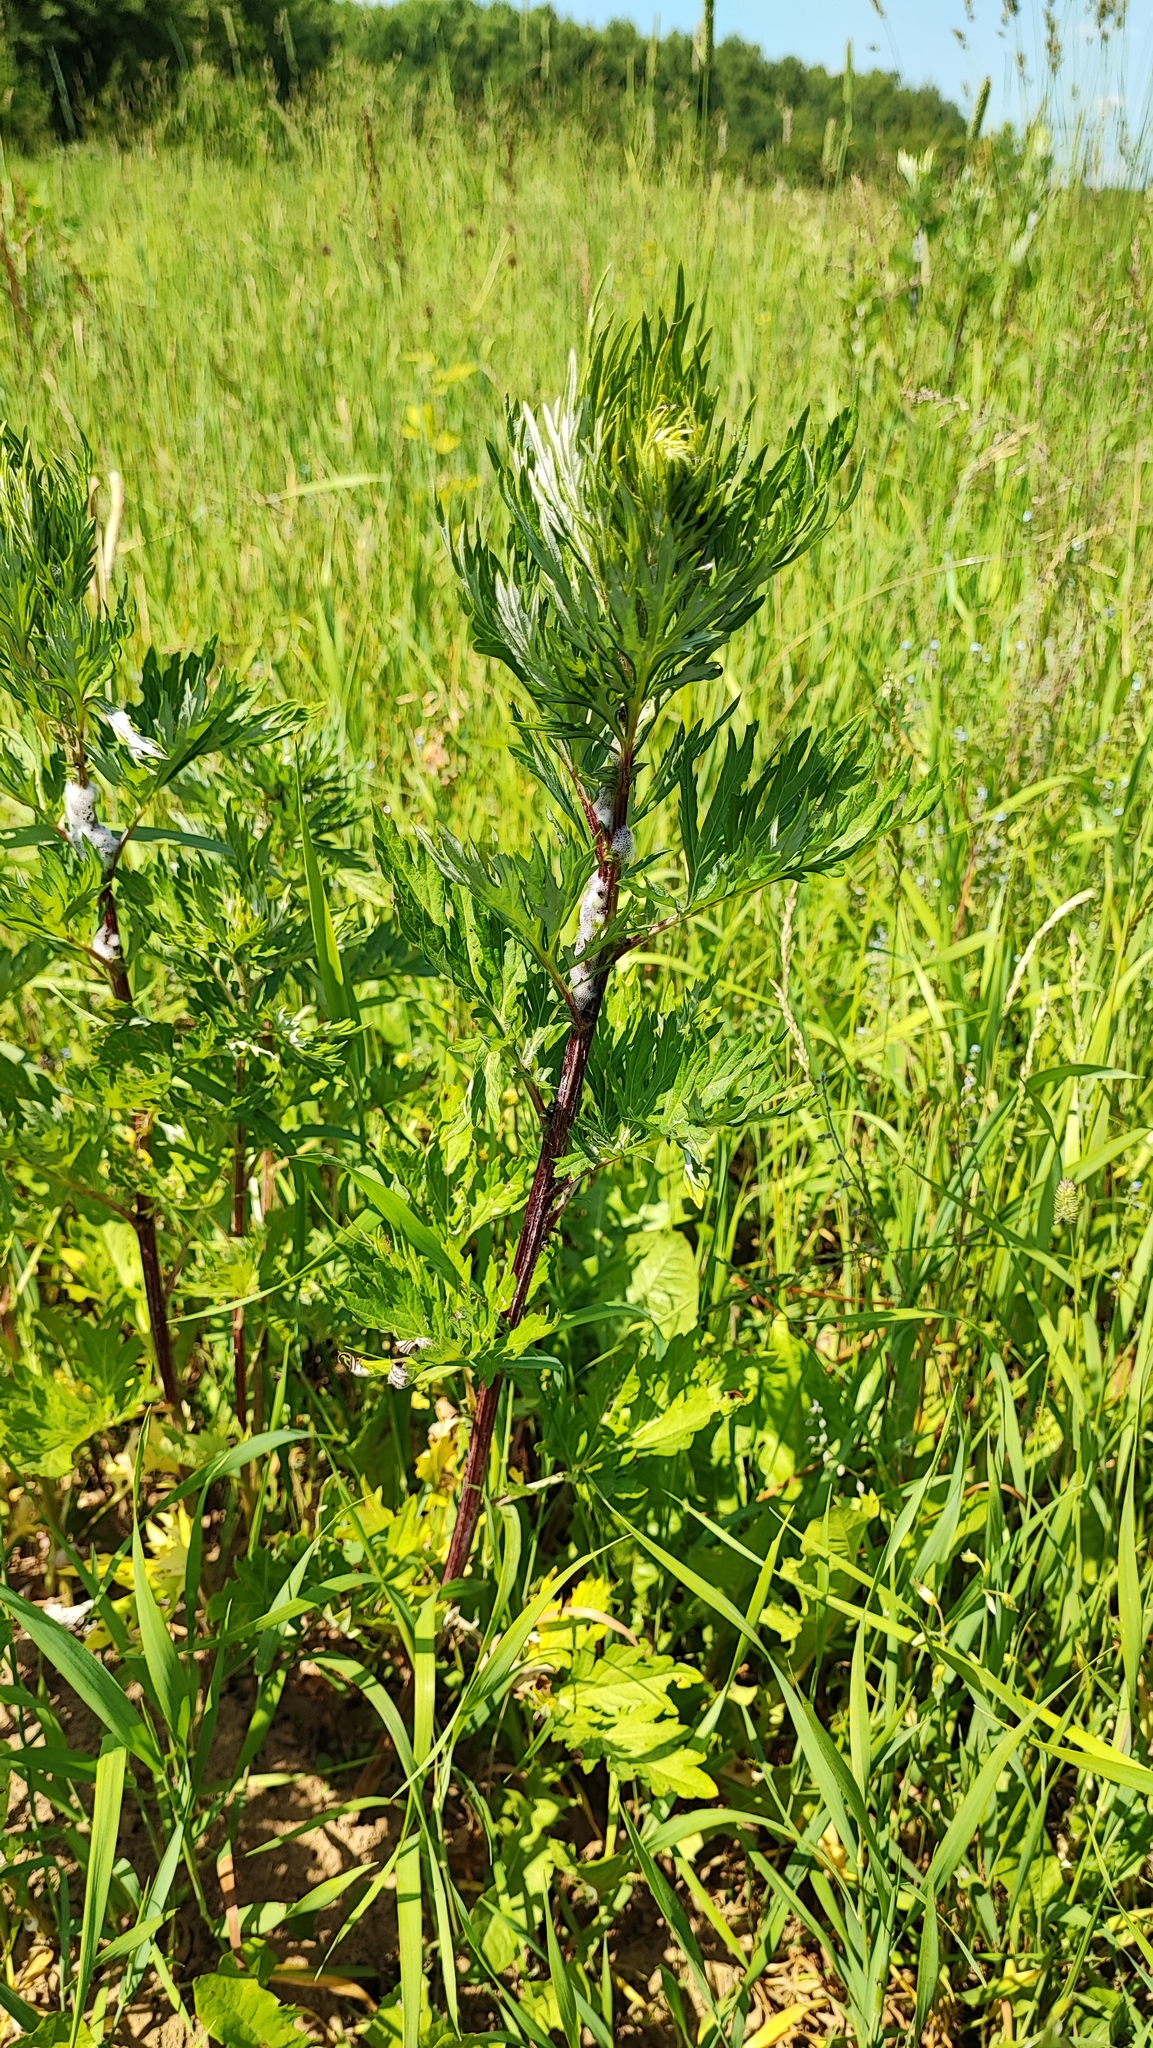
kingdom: Plantae
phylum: Tracheophyta
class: Magnoliopsida
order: Asterales
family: Asteraceae
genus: Artemisia
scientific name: Artemisia vulgaris
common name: Mugwort
